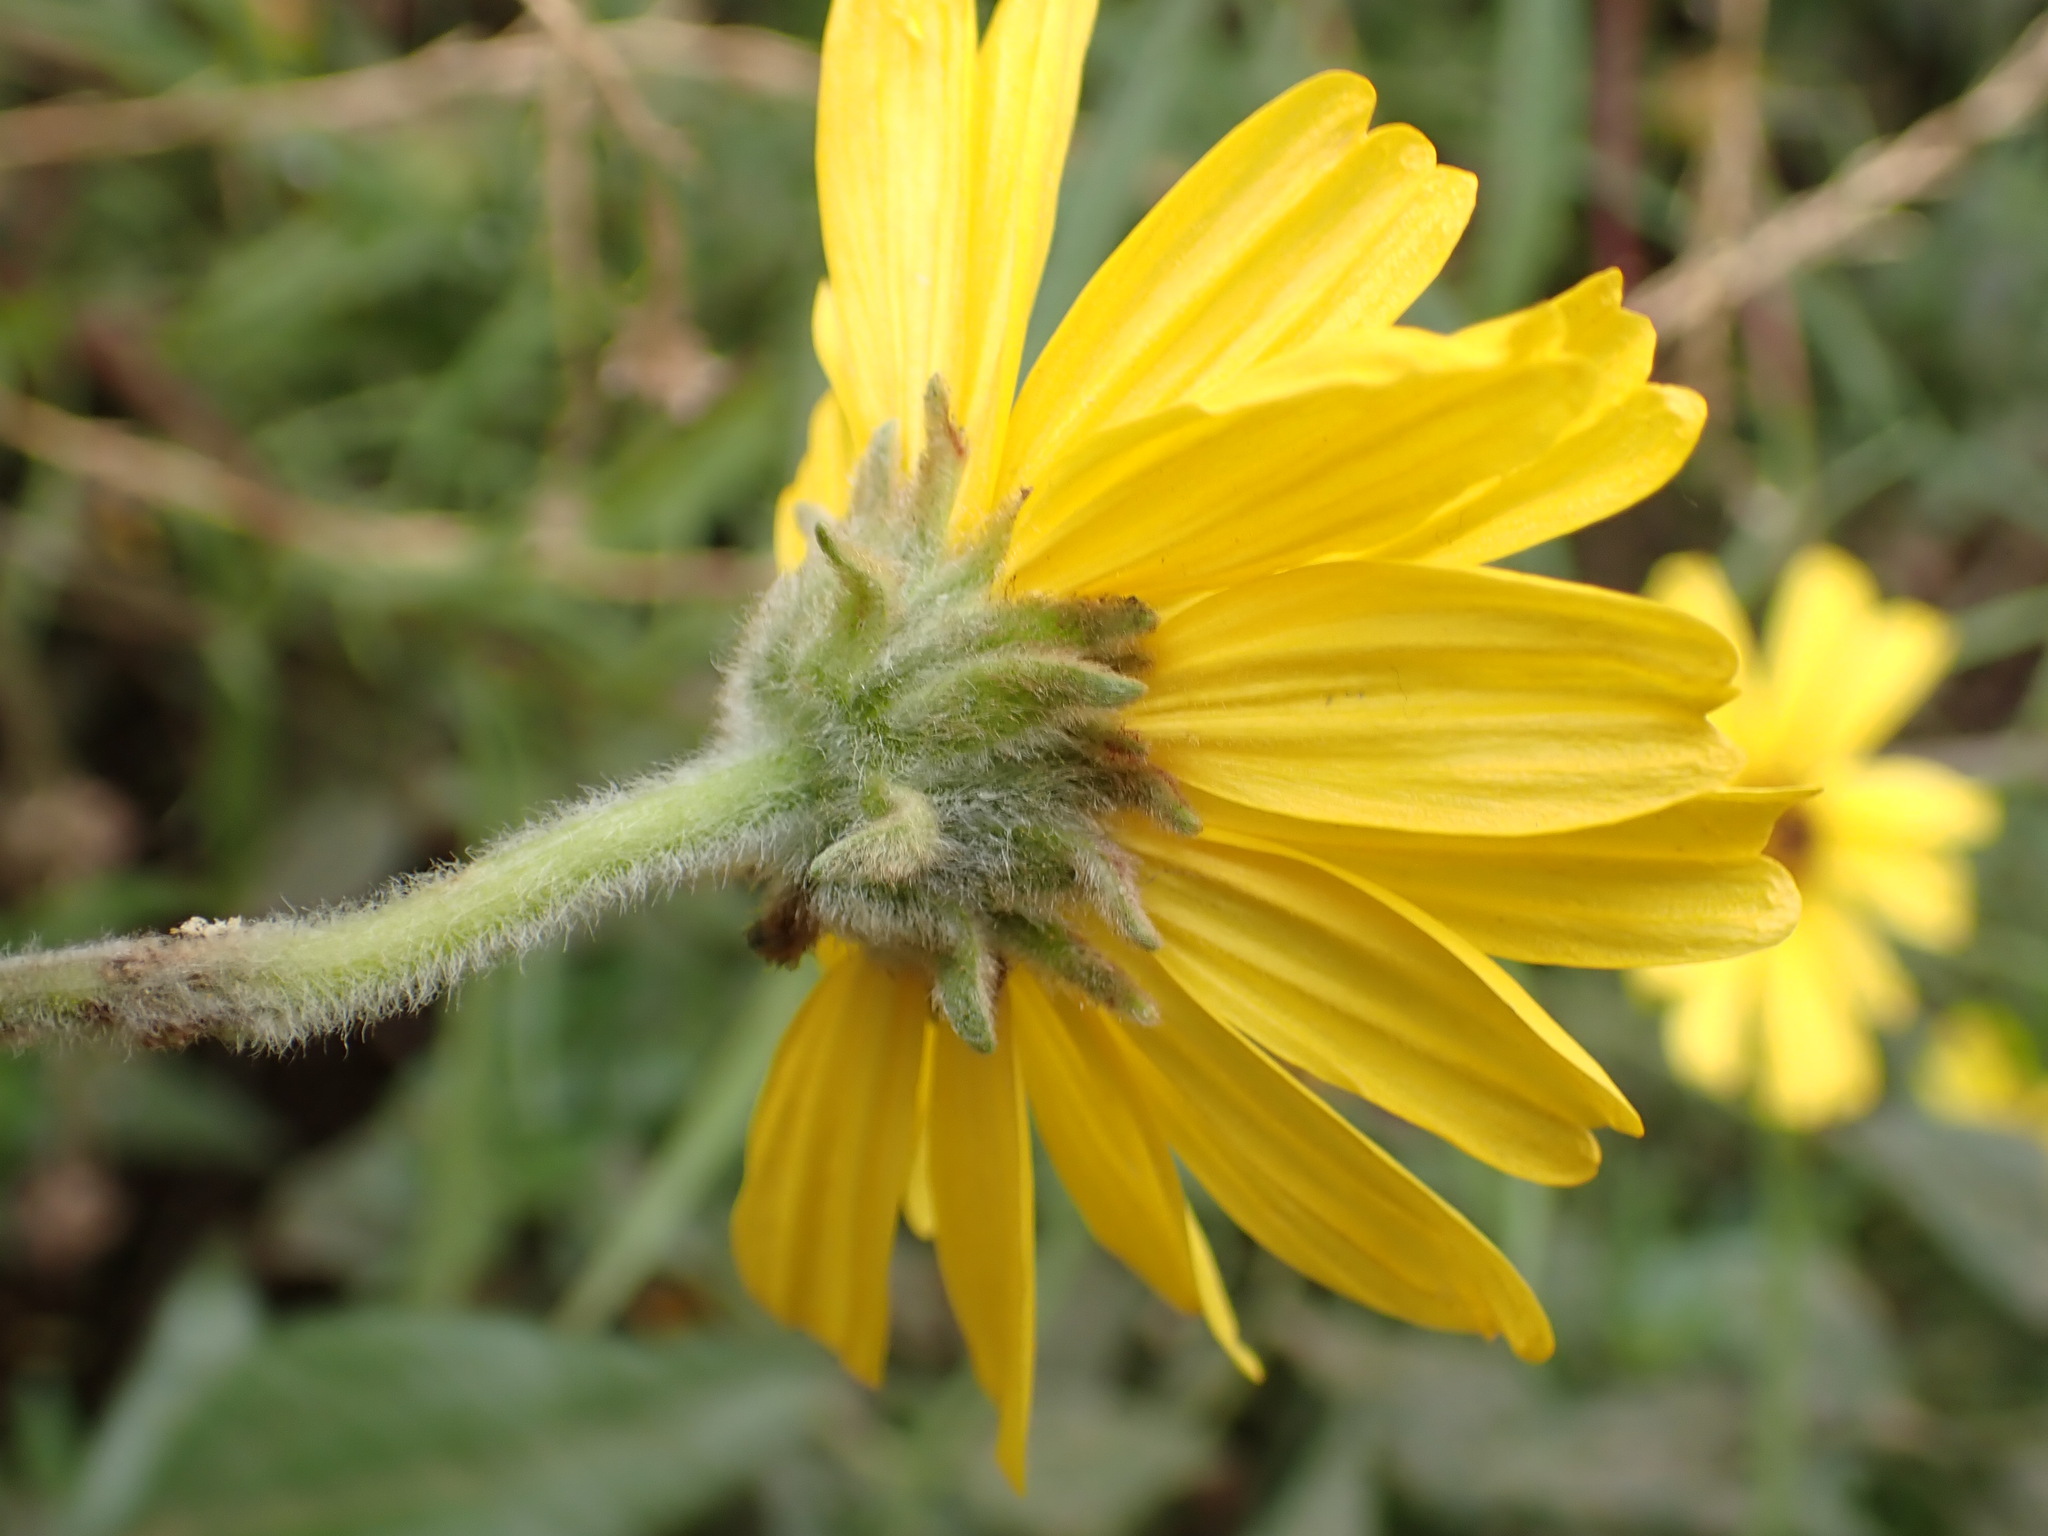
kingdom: Plantae
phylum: Tracheophyta
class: Magnoliopsida
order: Asterales
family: Asteraceae
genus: Encelia
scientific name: Encelia californica
